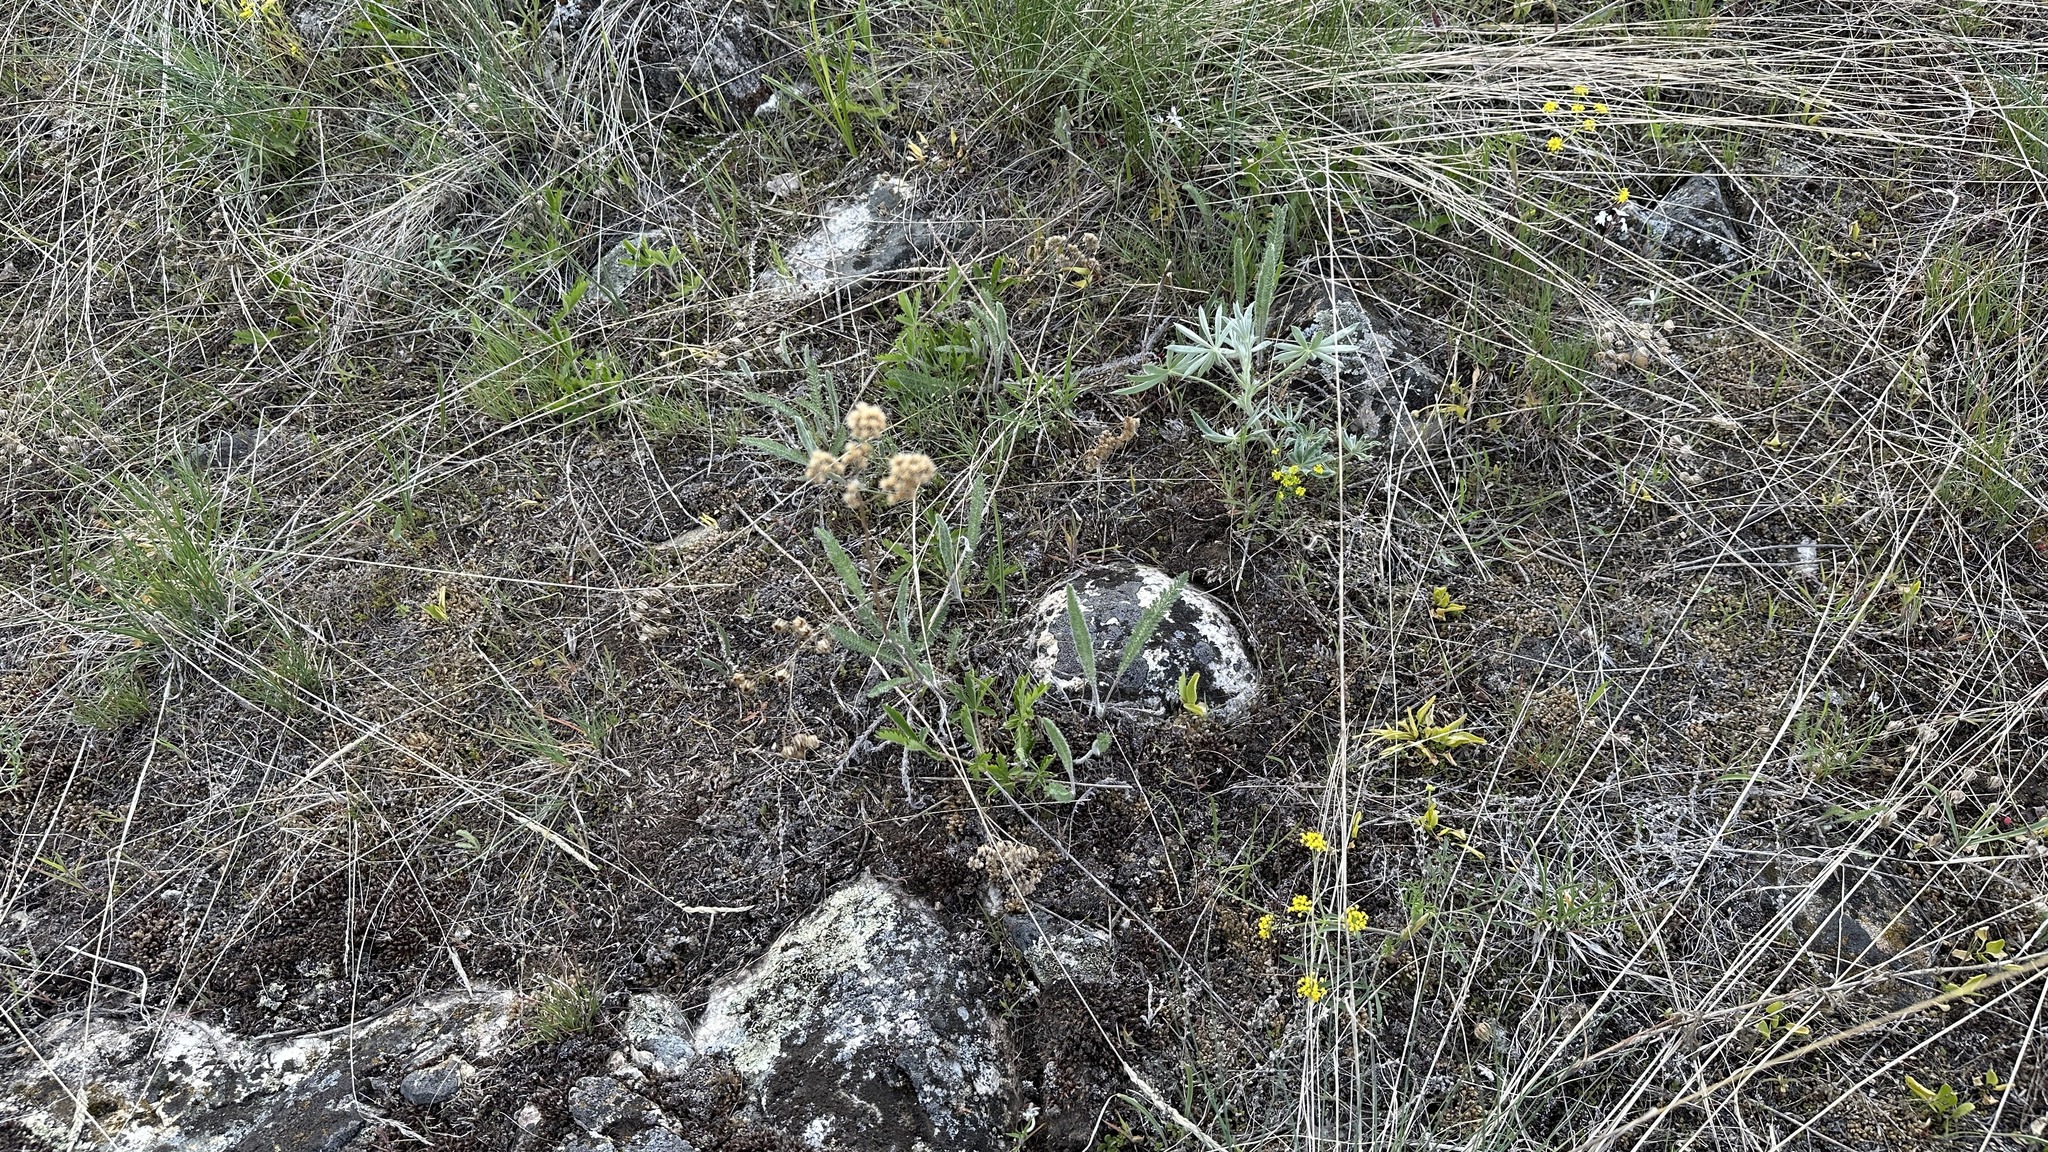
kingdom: Plantae
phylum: Tracheophyta
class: Magnoliopsida
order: Asterales
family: Asteraceae
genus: Achillea
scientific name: Achillea millefolium
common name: Yarrow
